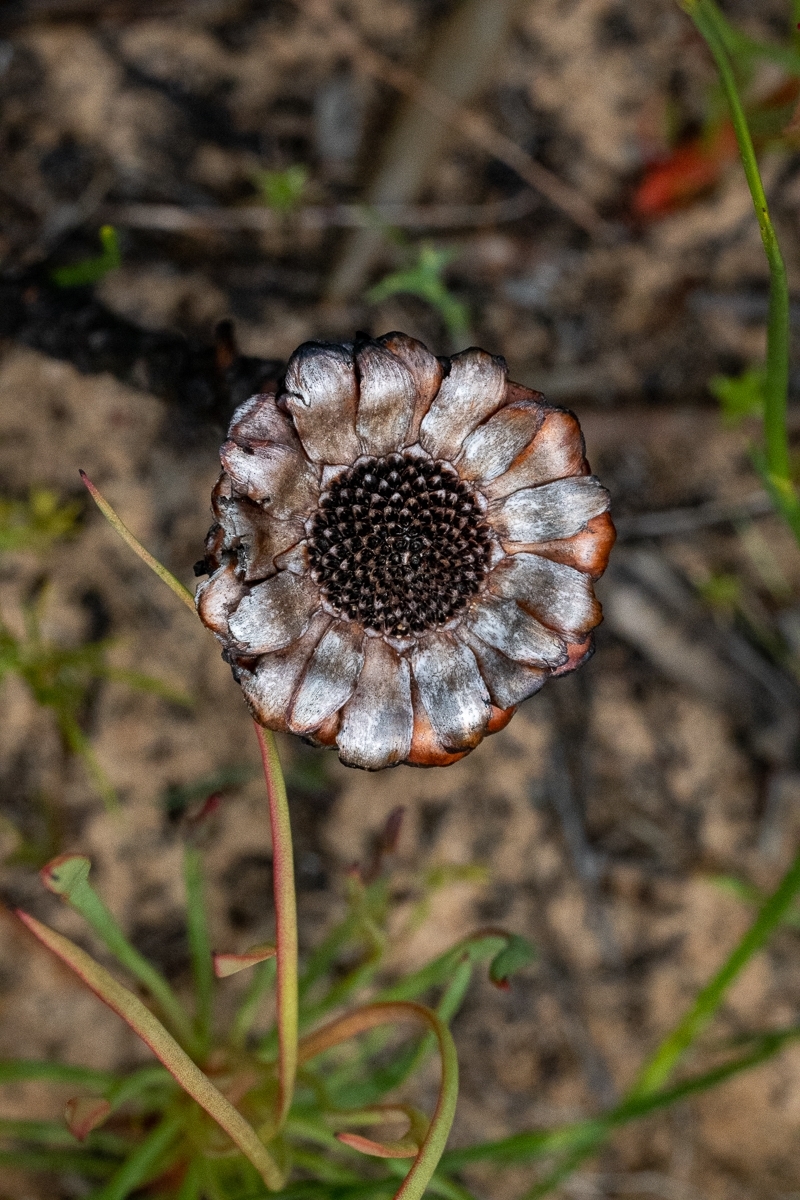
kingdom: Plantae
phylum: Tracheophyta
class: Magnoliopsida
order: Proteales
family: Proteaceae
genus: Protea
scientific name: Protea angustata
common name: Kleinmond sugarbush
